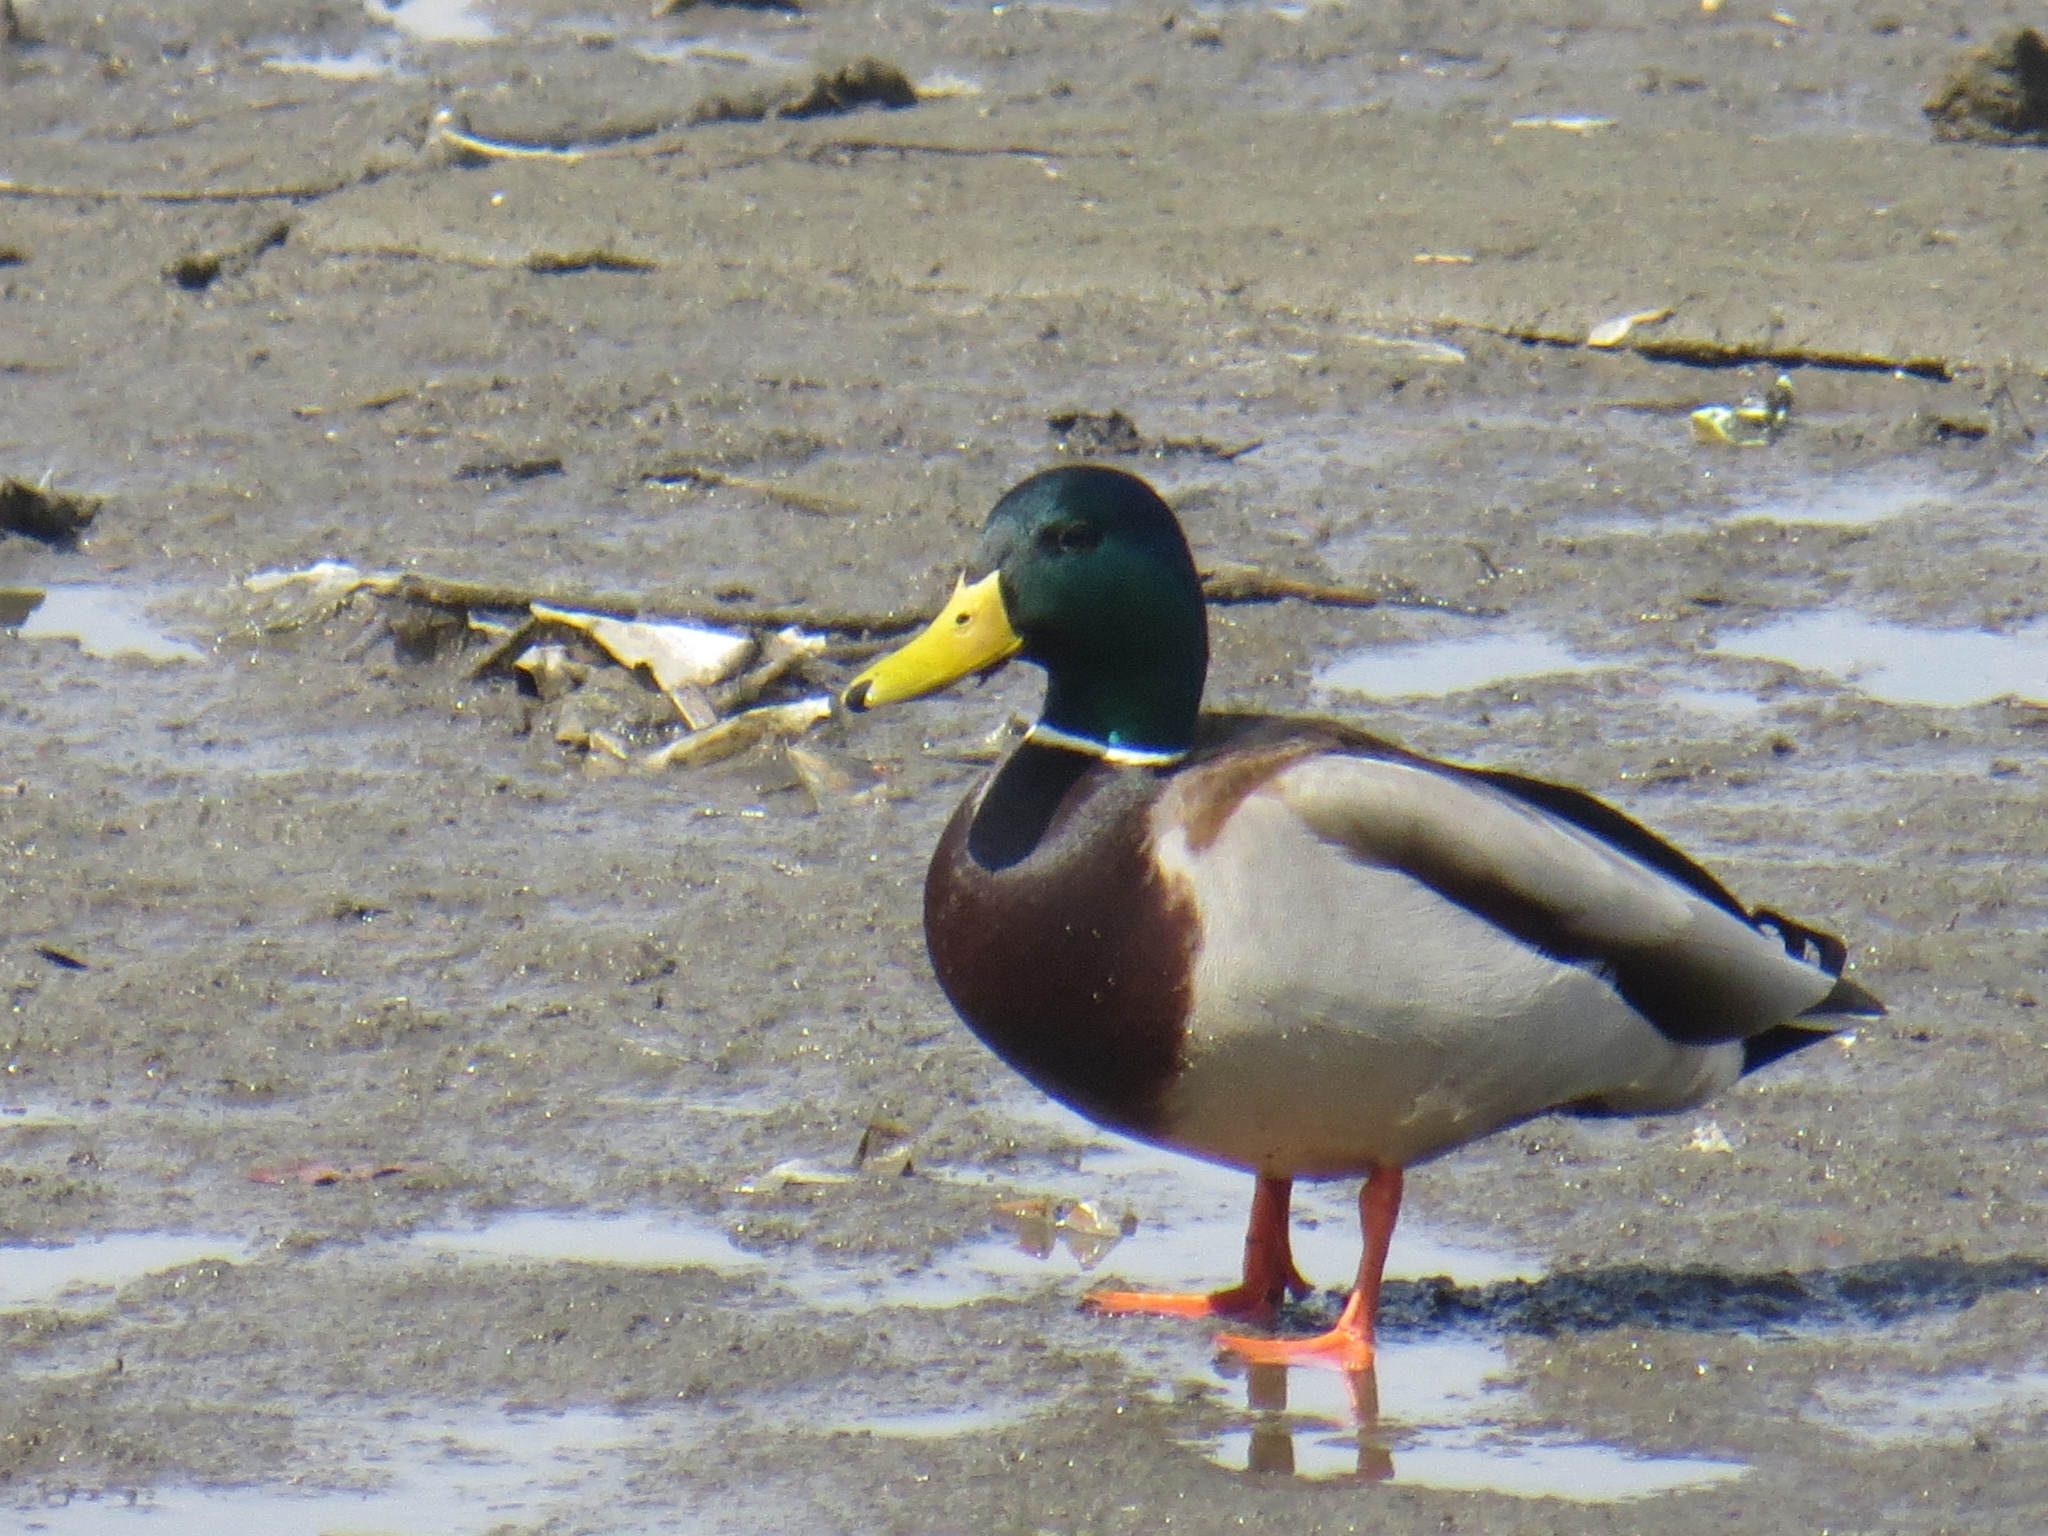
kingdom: Animalia
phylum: Chordata
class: Aves
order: Anseriformes
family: Anatidae
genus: Anas
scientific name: Anas platyrhynchos
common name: Mallard
